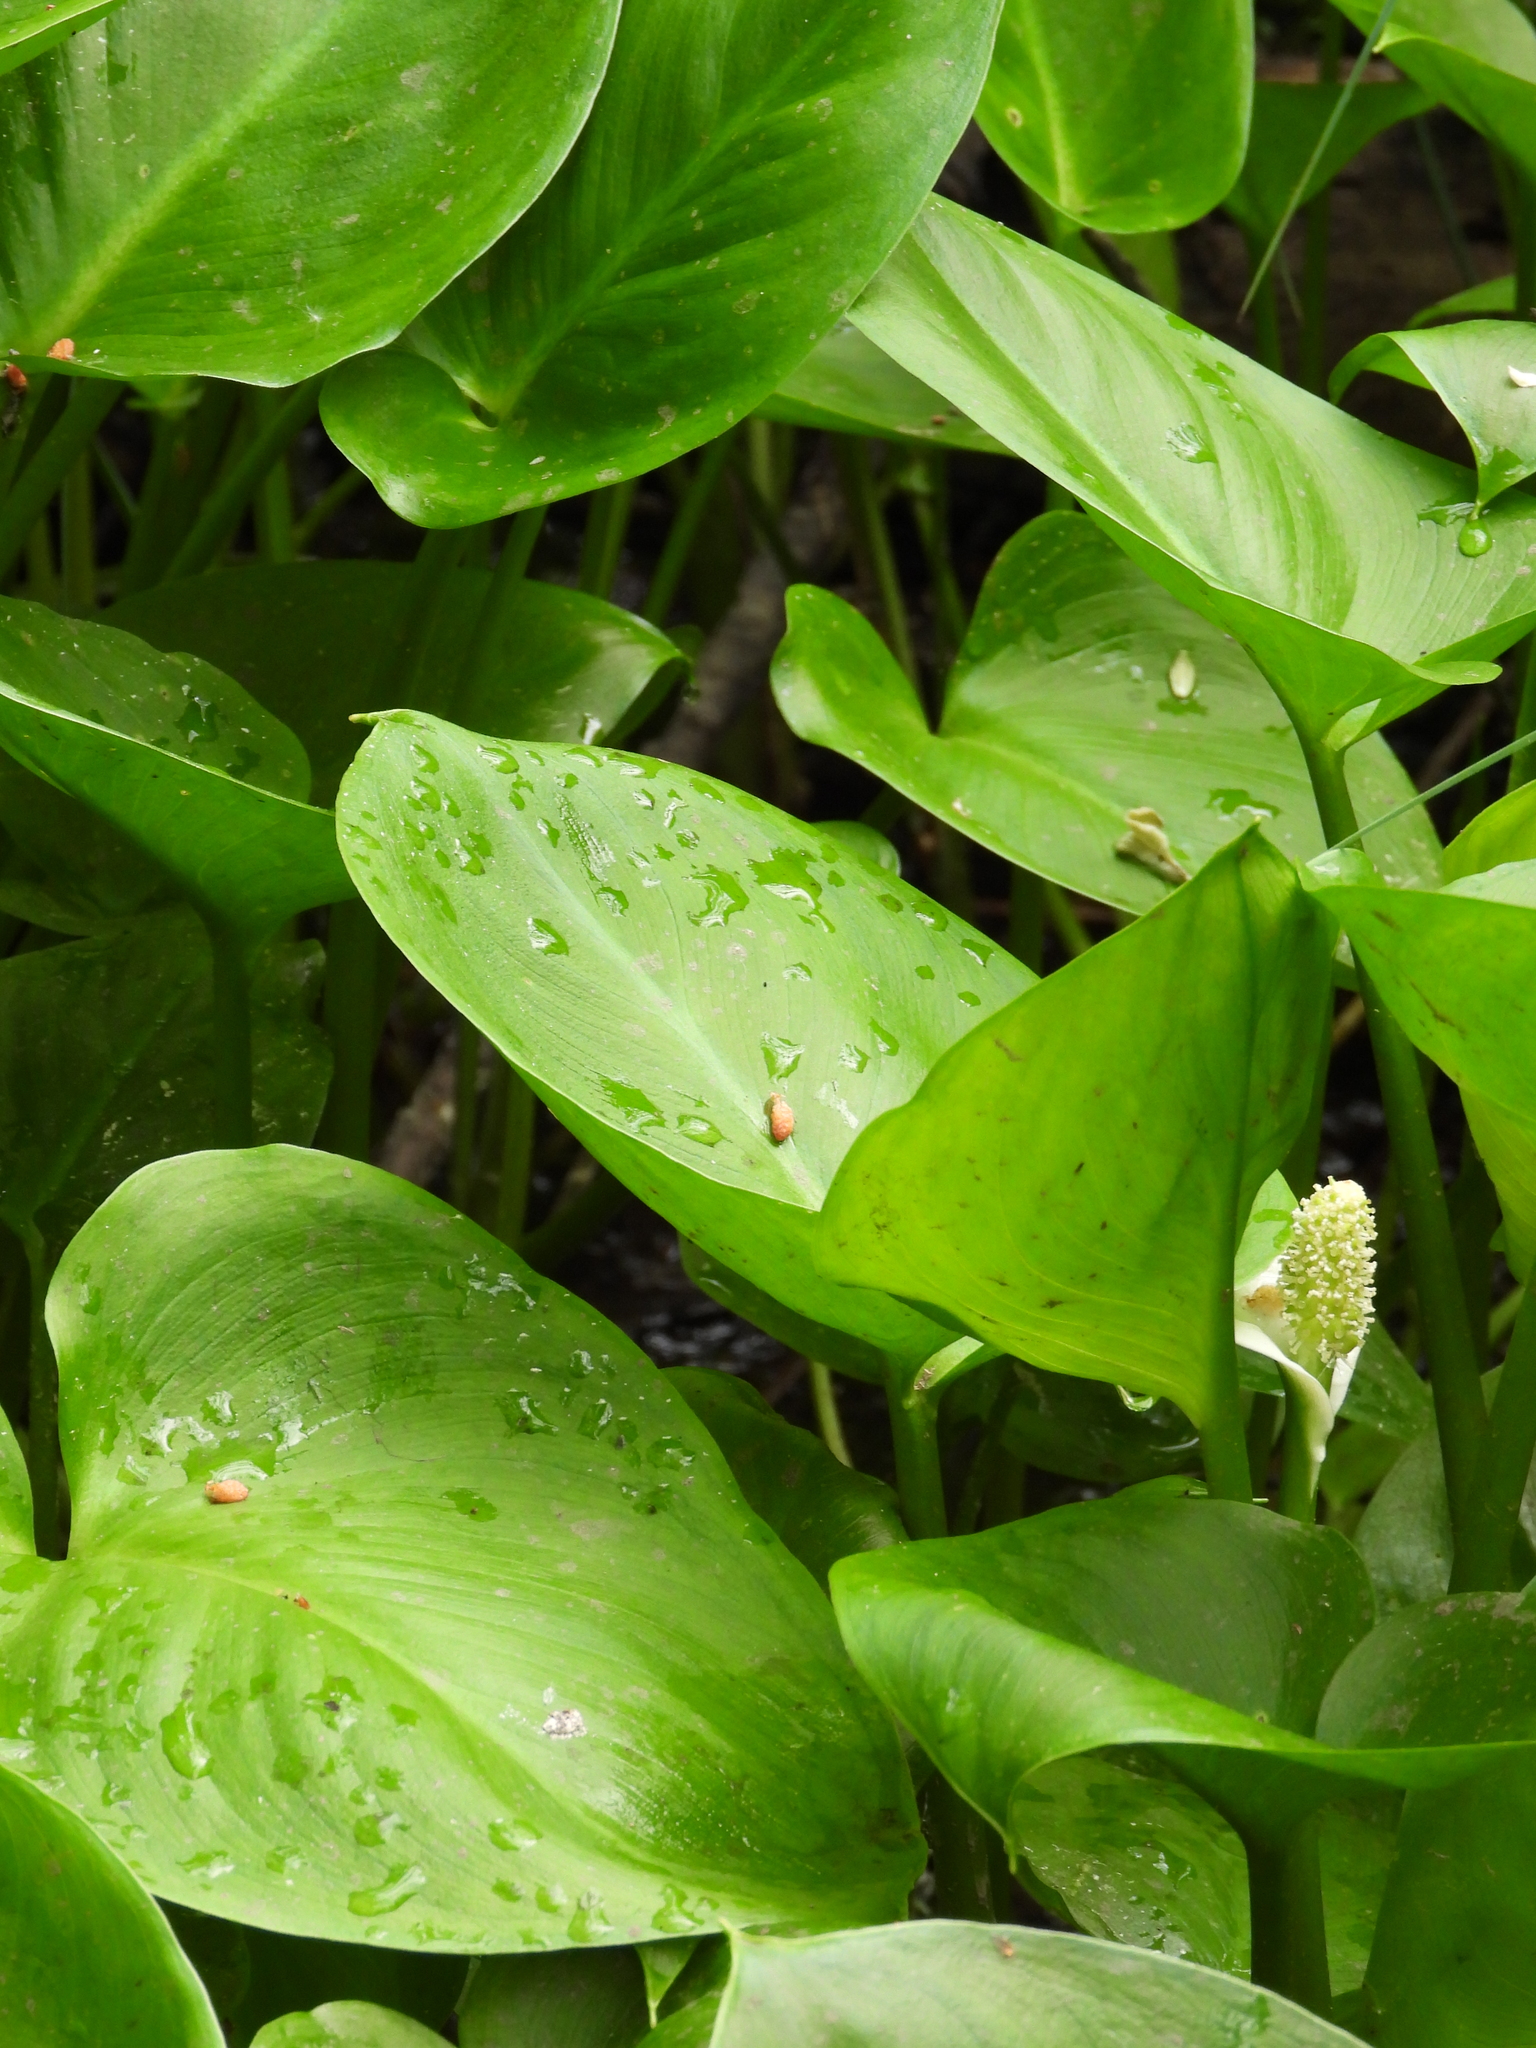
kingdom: Plantae
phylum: Tracheophyta
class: Liliopsida
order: Alismatales
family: Araceae
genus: Calla
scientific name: Calla palustris
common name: Bog arum
